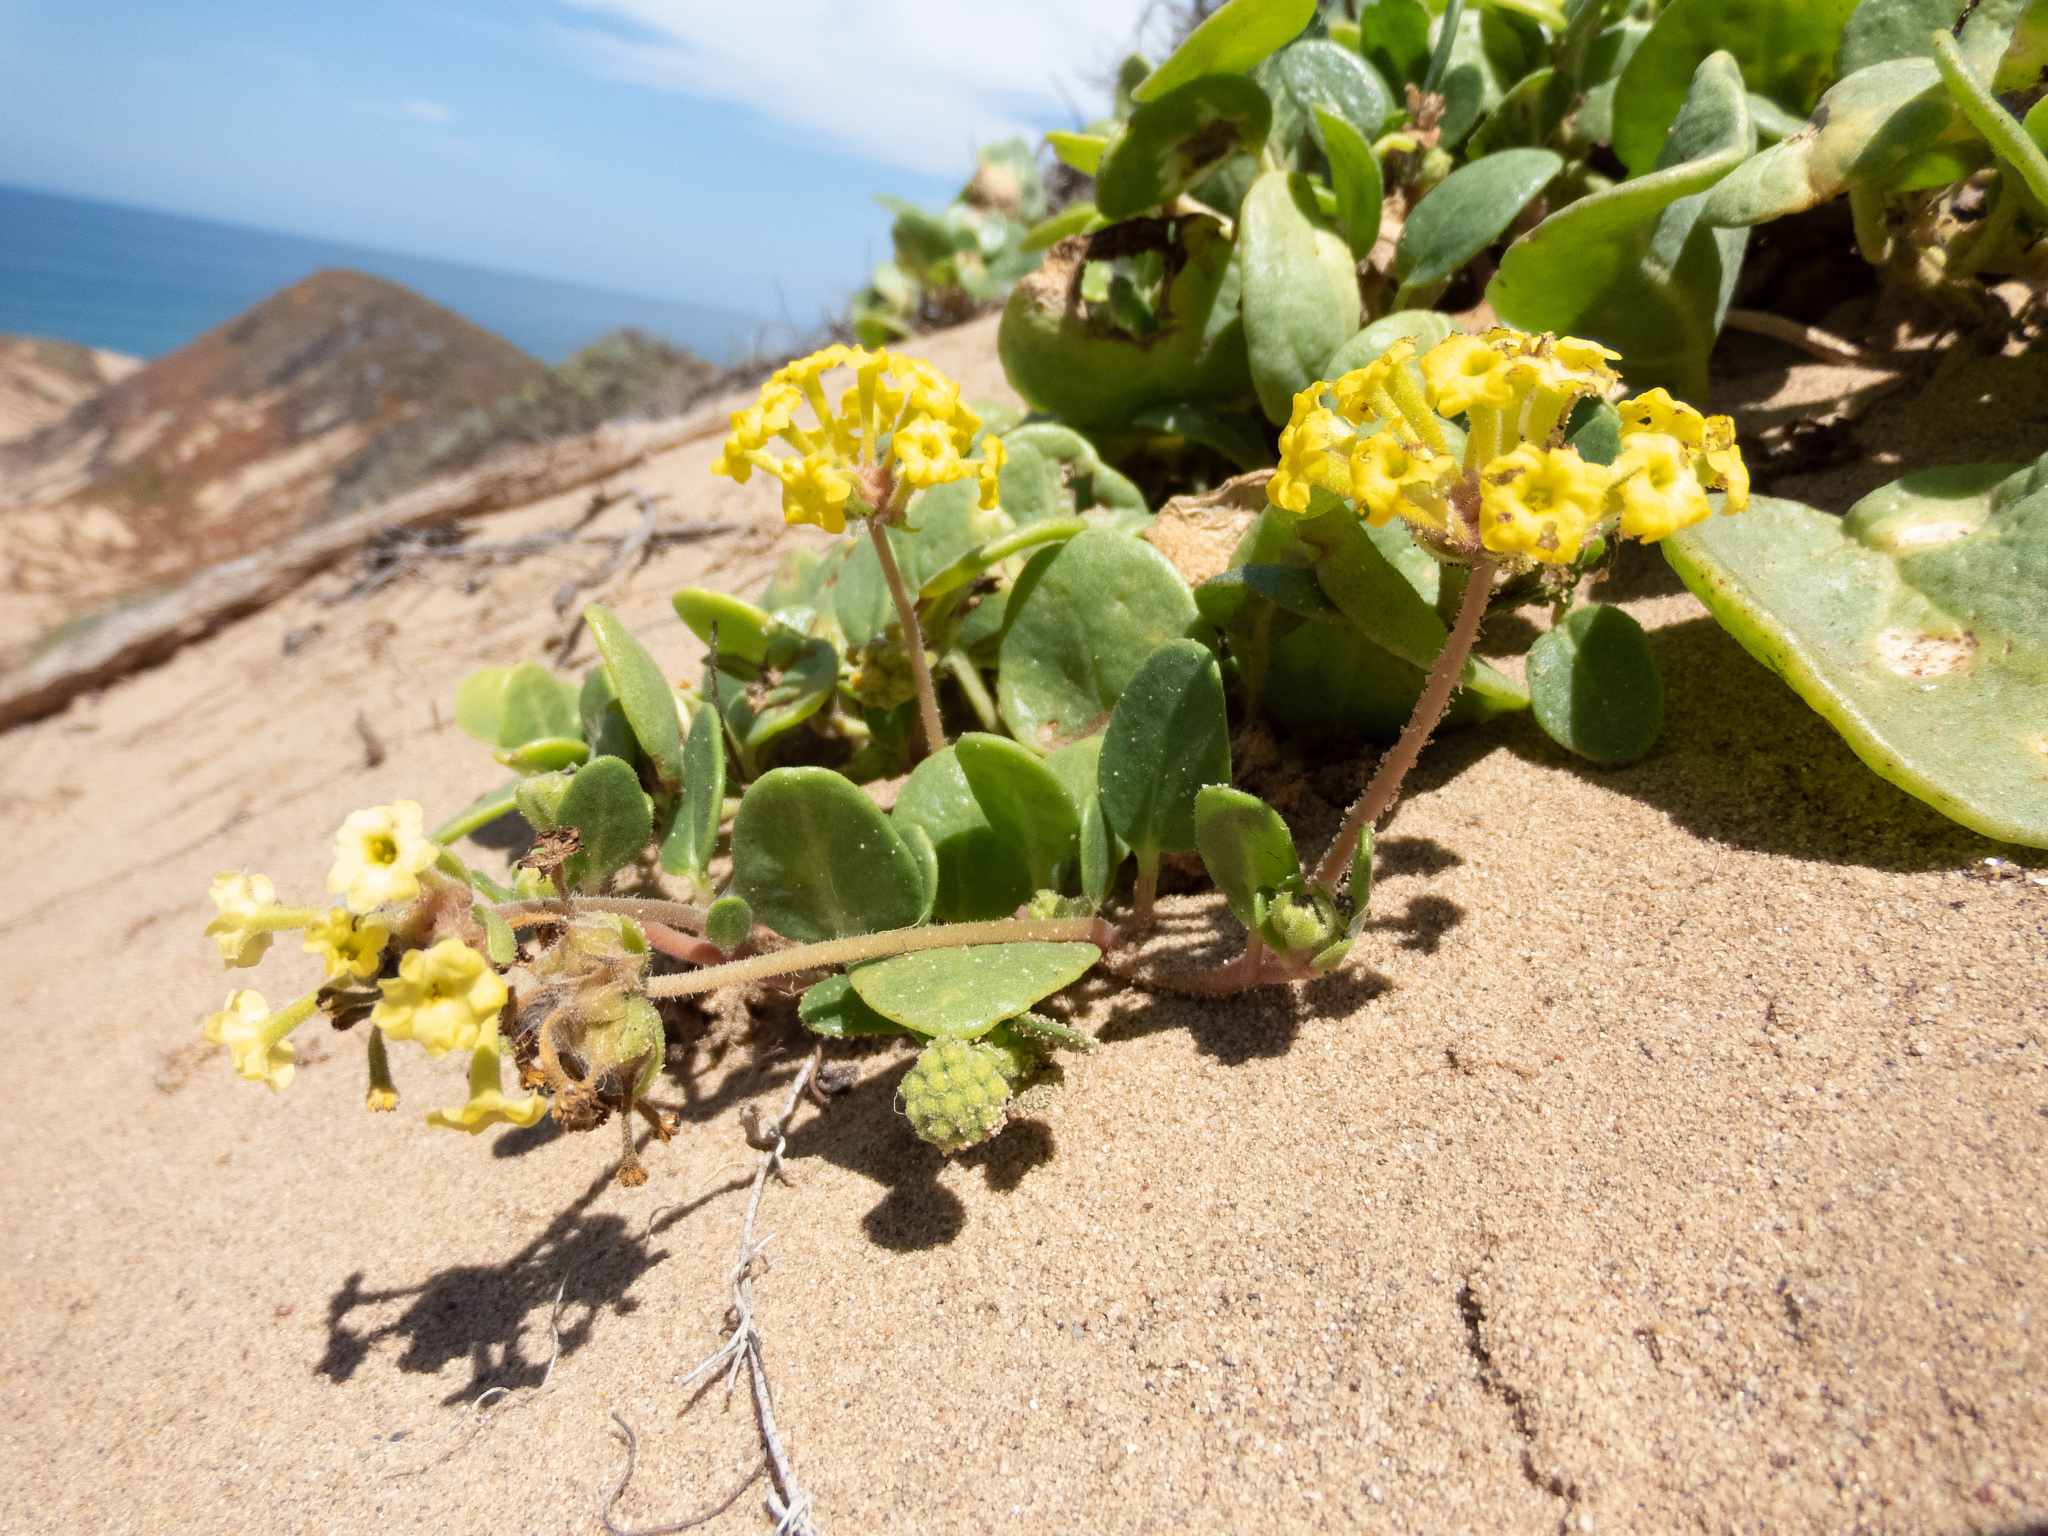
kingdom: Plantae
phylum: Tracheophyta
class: Magnoliopsida
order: Caryophyllales
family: Nyctaginaceae
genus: Abronia
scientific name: Abronia latifolia
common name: Yellow sand-verbena
